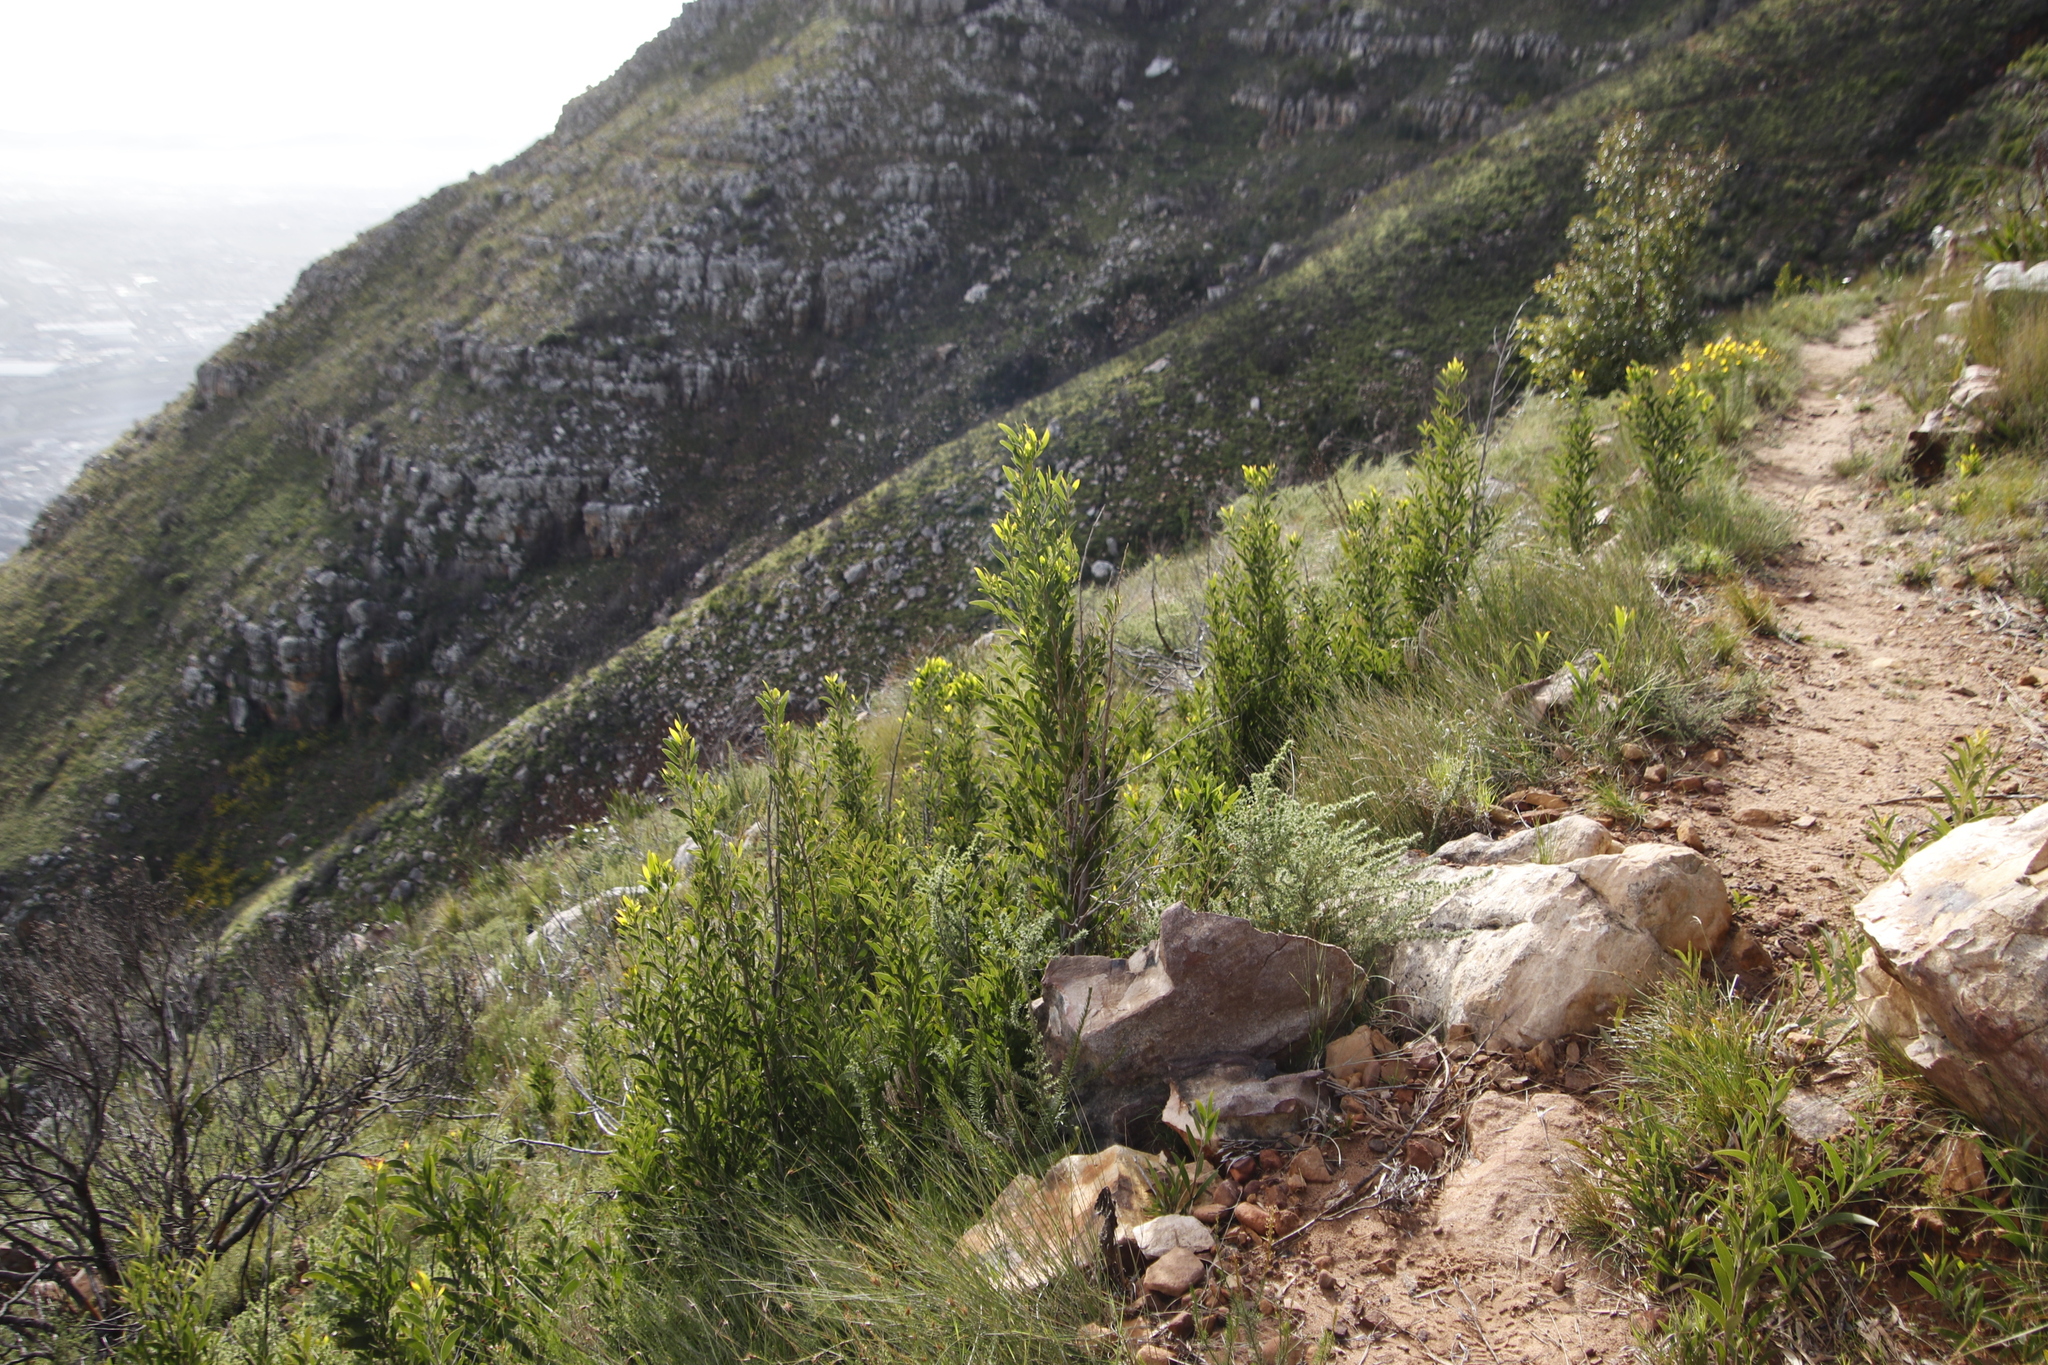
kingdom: Plantae
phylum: Tracheophyta
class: Magnoliopsida
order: Fabales
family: Fabaceae
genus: Acacia
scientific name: Acacia melanoxylon
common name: Blackwood
